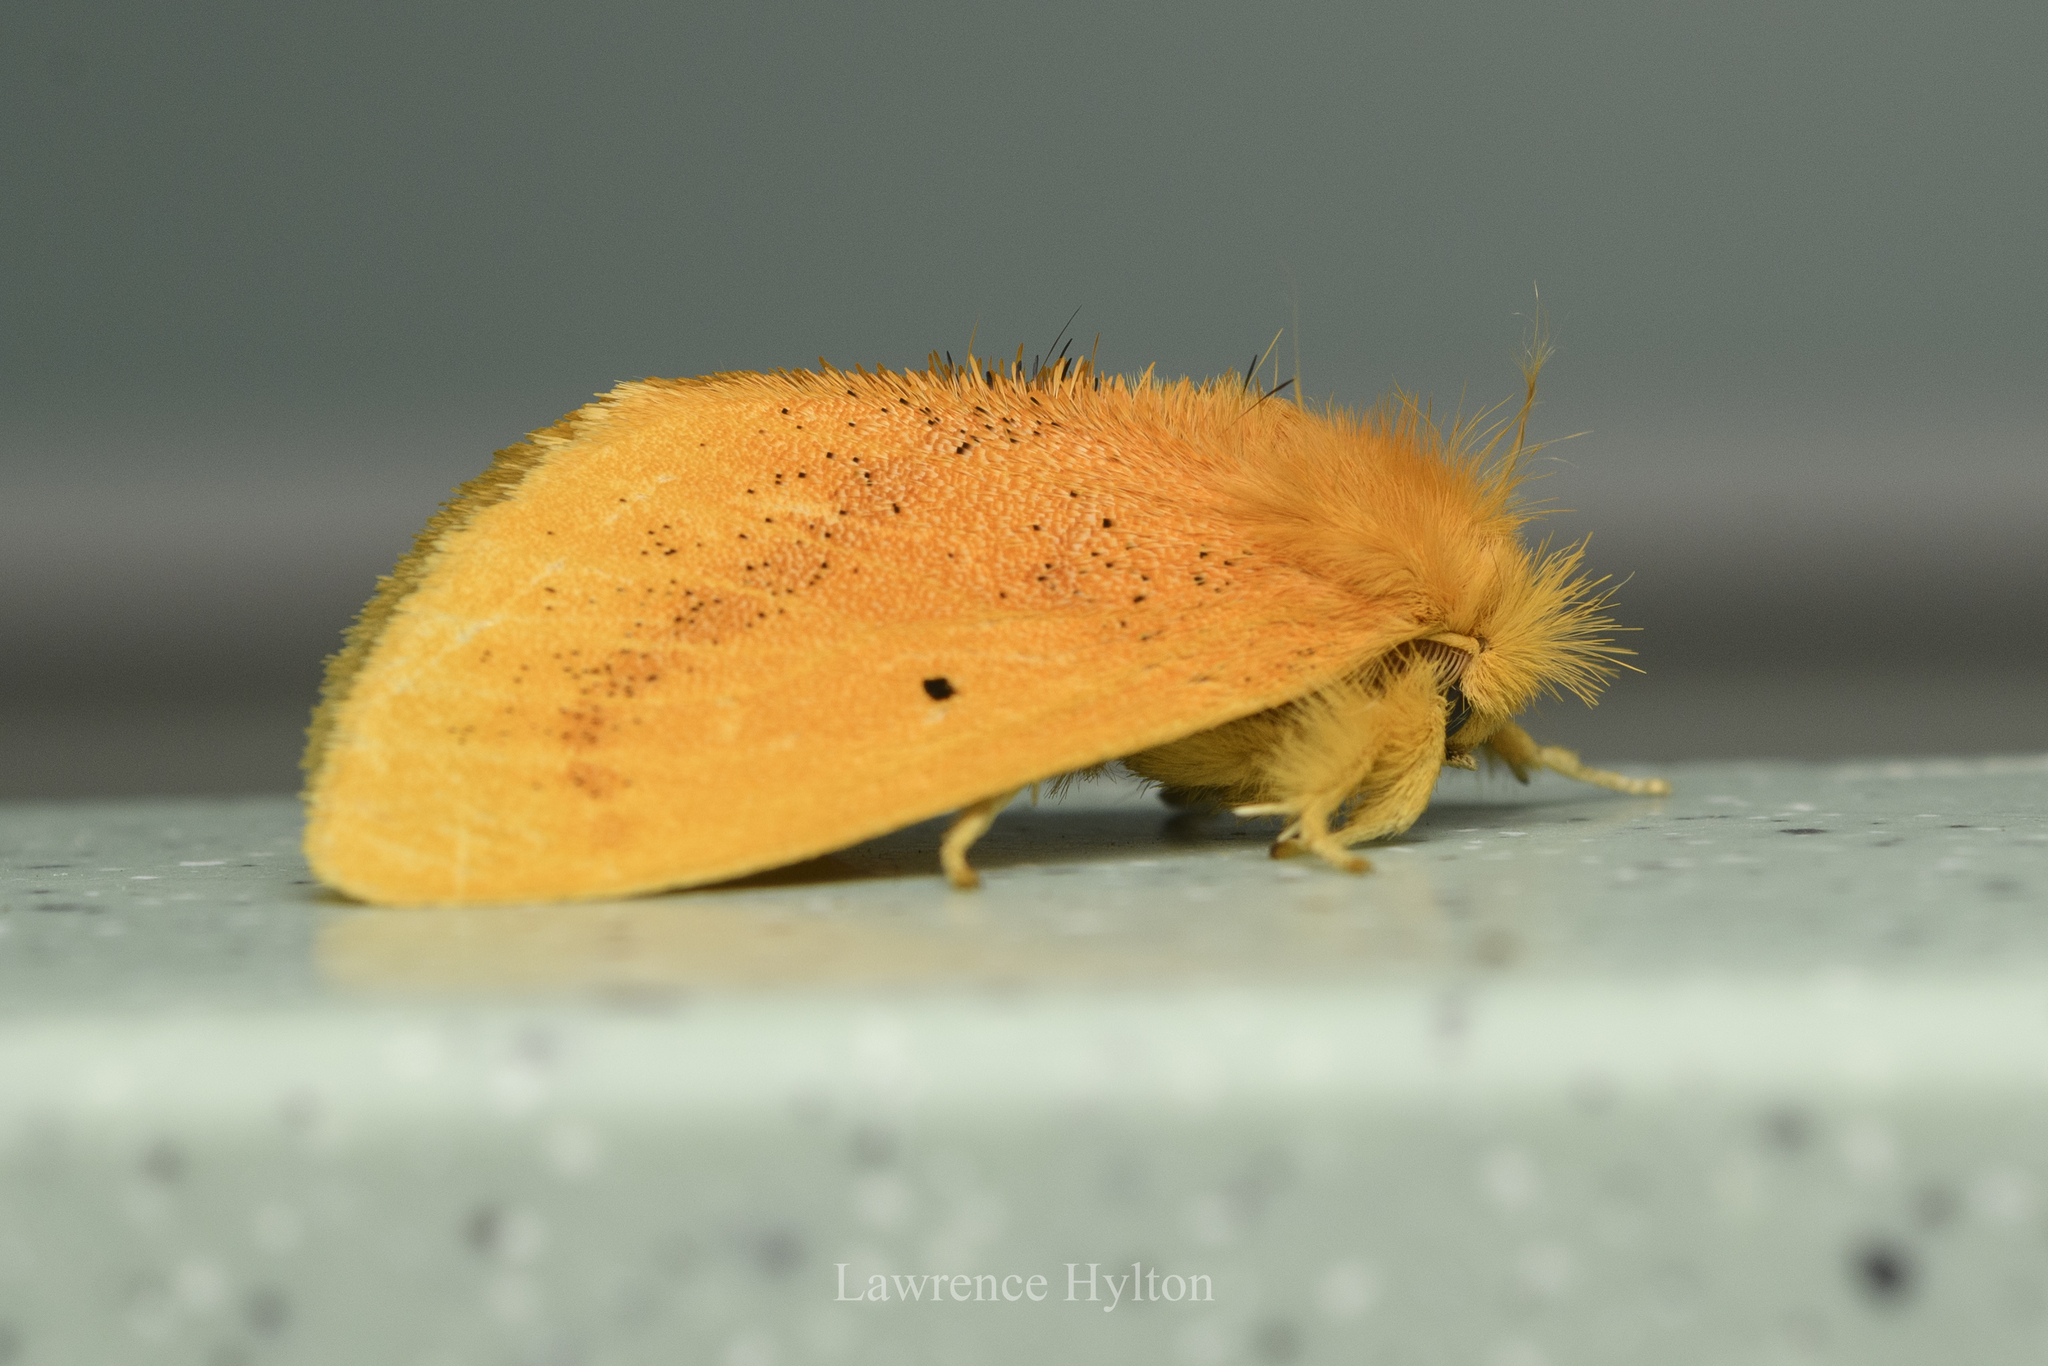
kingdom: Animalia
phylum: Arthropoda
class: Insecta
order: Lepidoptera
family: Erebidae
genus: Nygmia
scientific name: Nygmia plana
